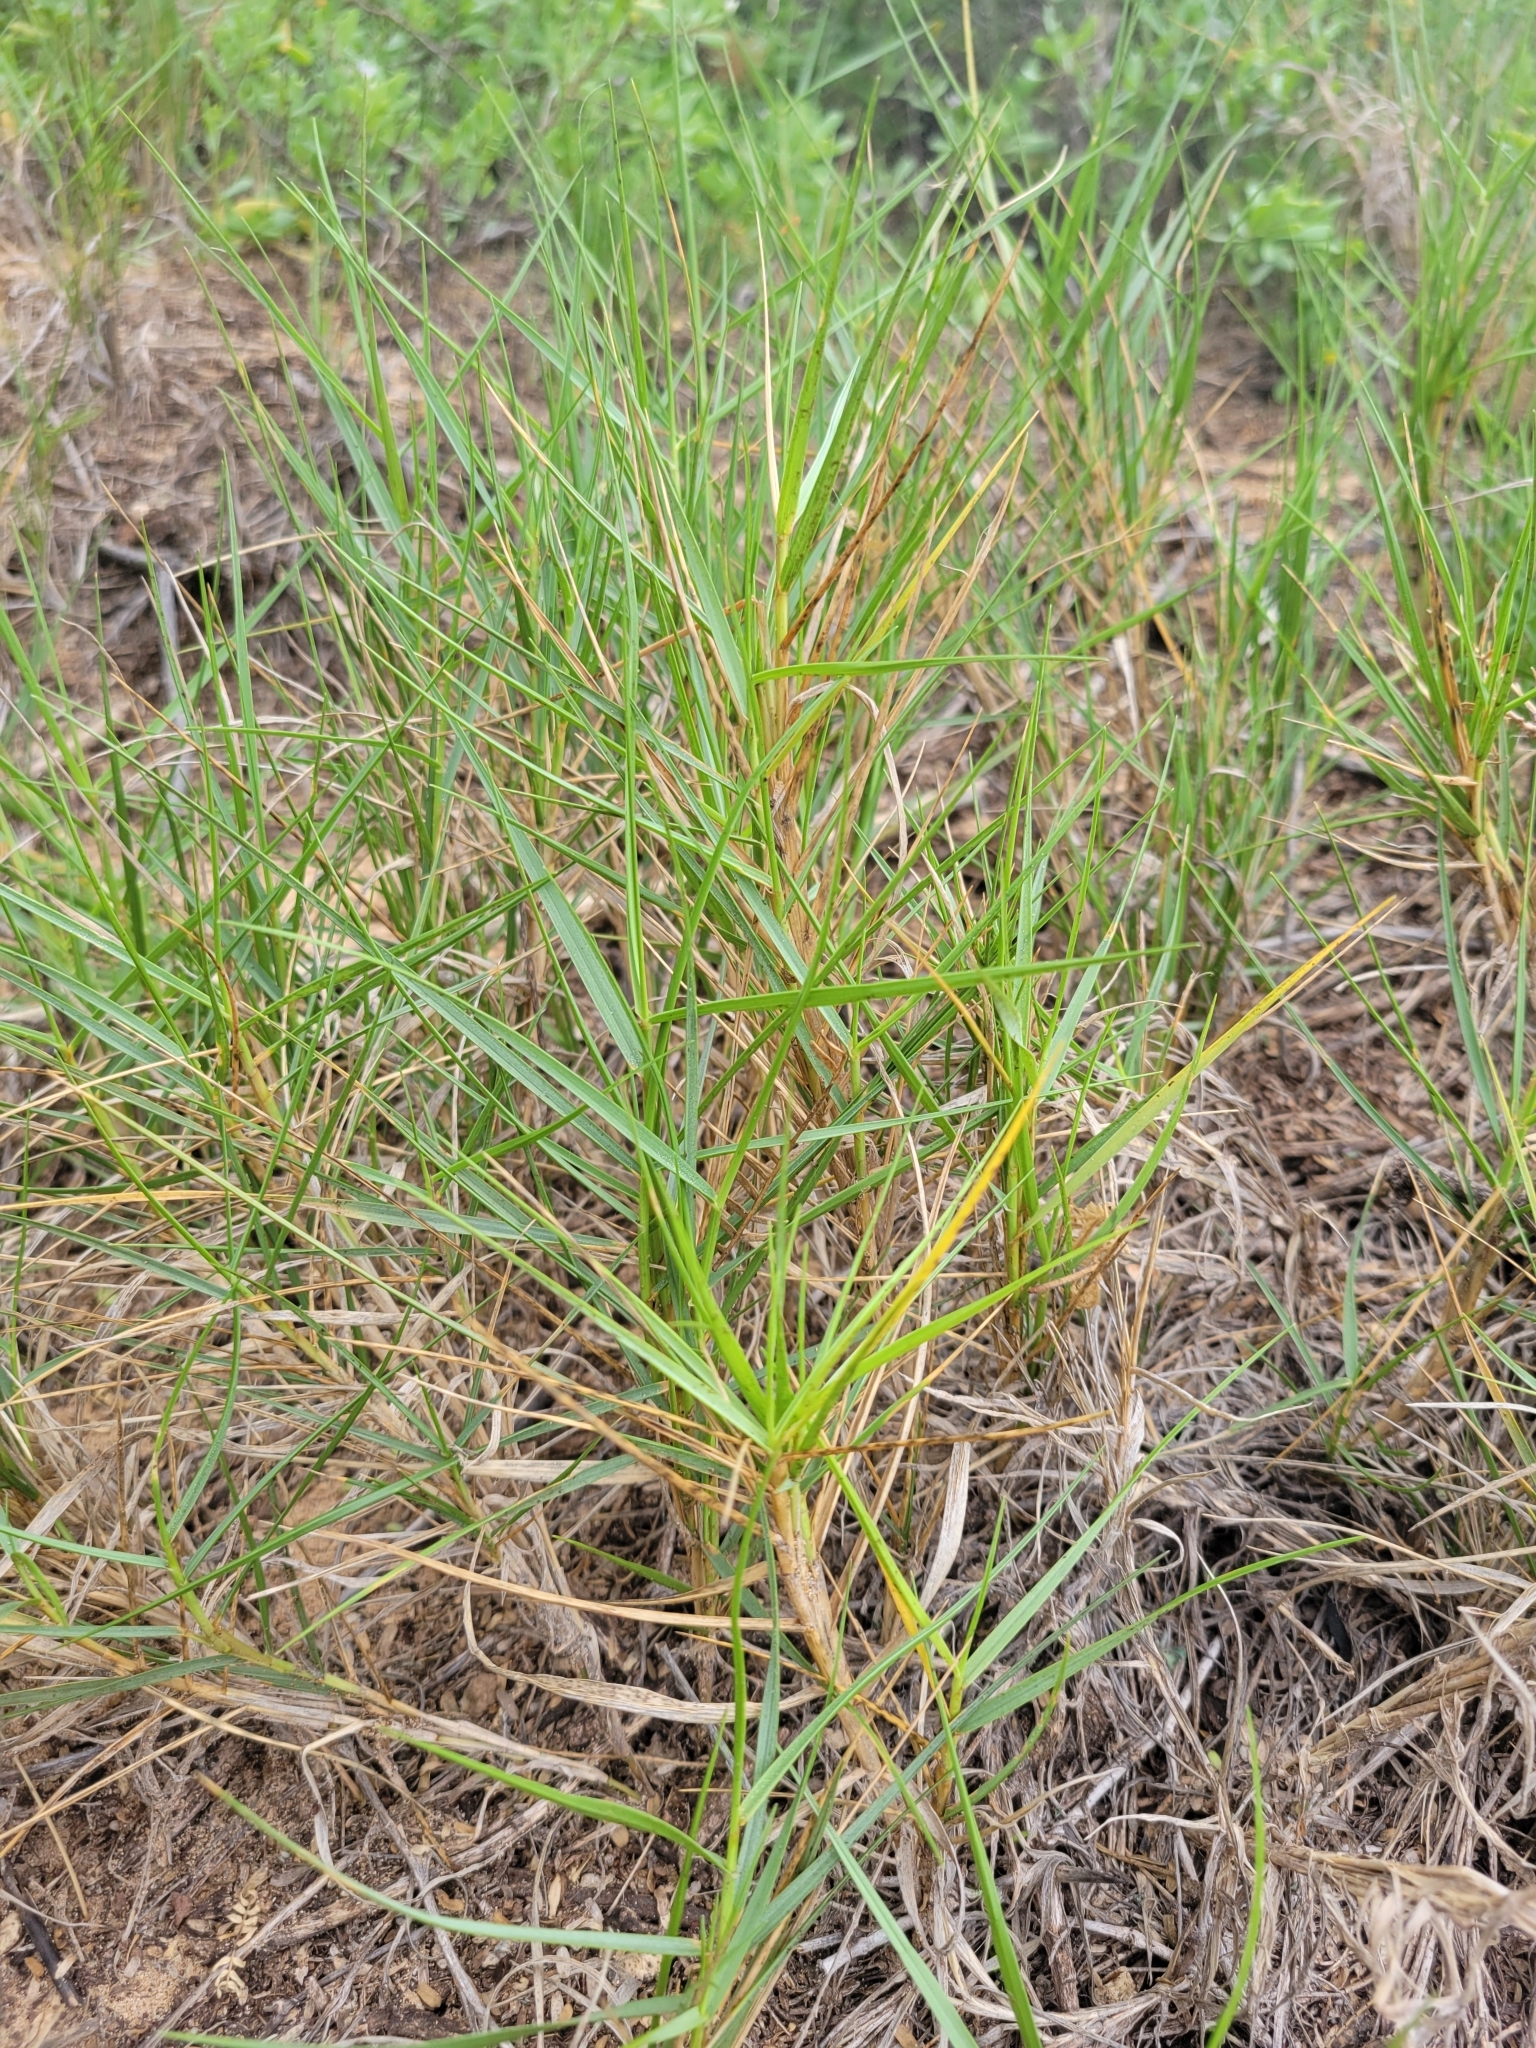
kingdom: Plantae
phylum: Tracheophyta
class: Liliopsida
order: Poales
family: Poaceae
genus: Sporobolus
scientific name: Sporobolus virginicus
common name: Beach dropseed
